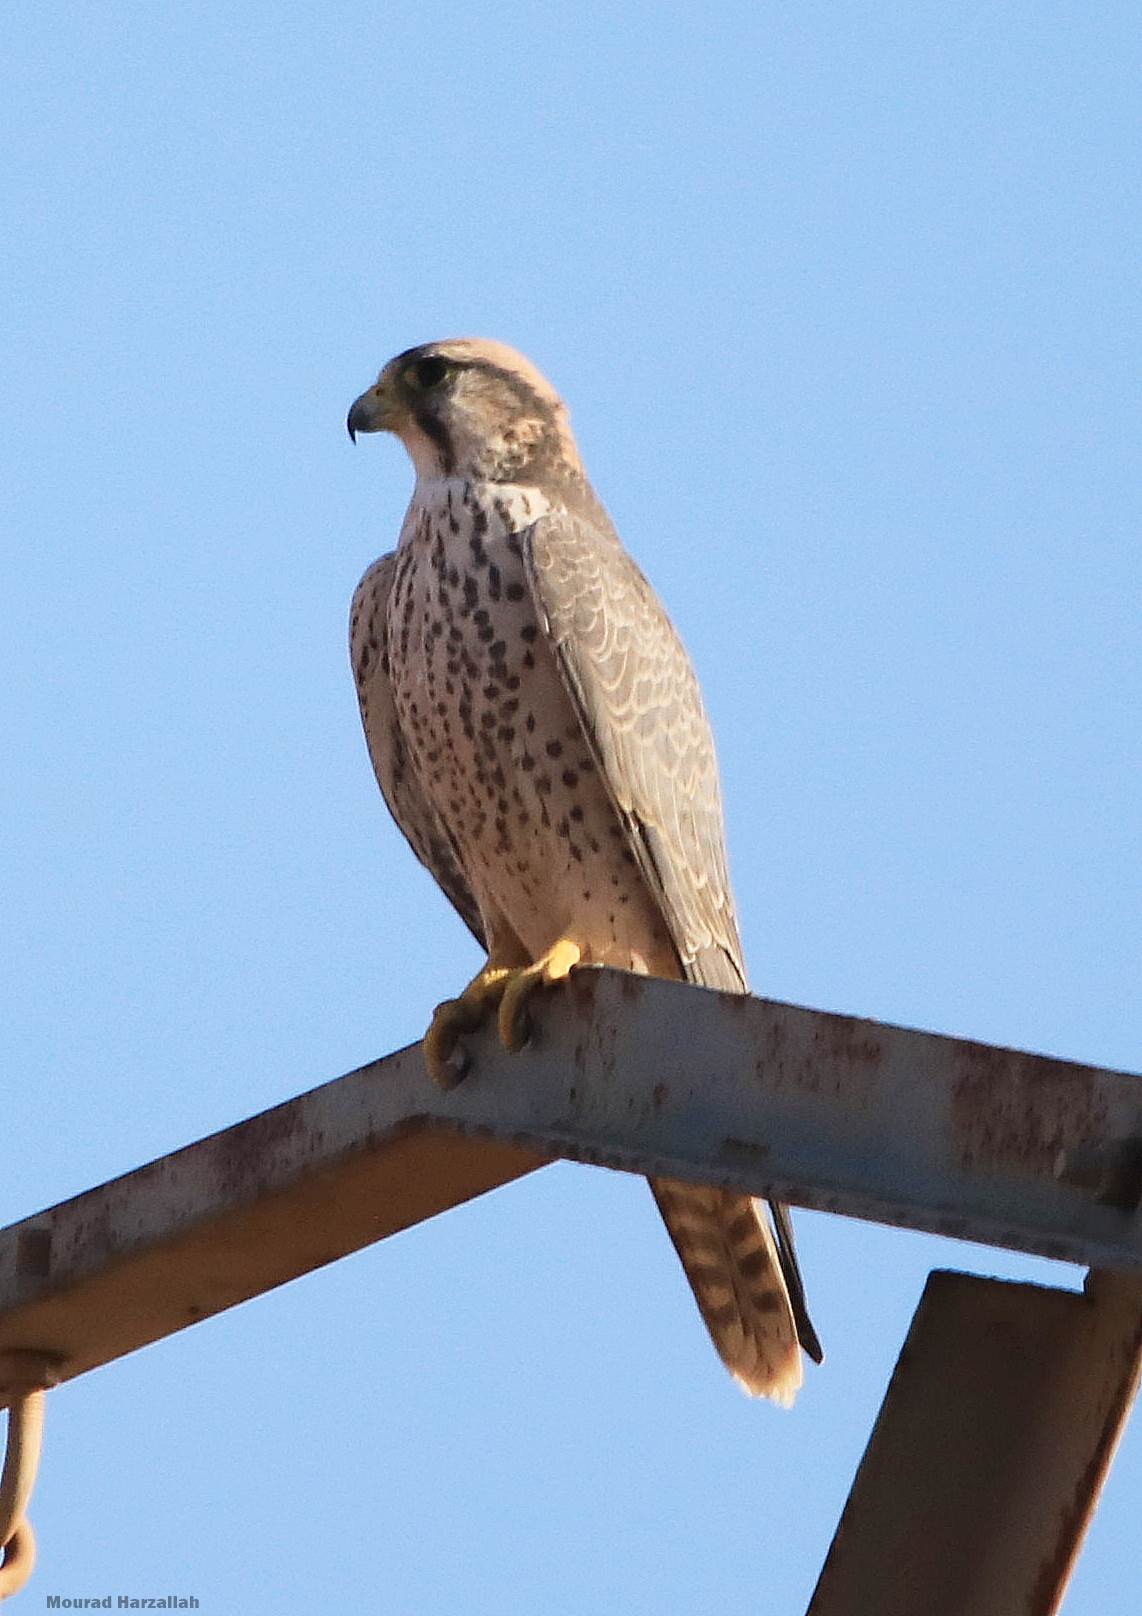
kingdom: Animalia
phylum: Chordata
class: Aves
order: Falconiformes
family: Falconidae
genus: Falco
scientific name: Falco biarmicus
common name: Lanner falcon
